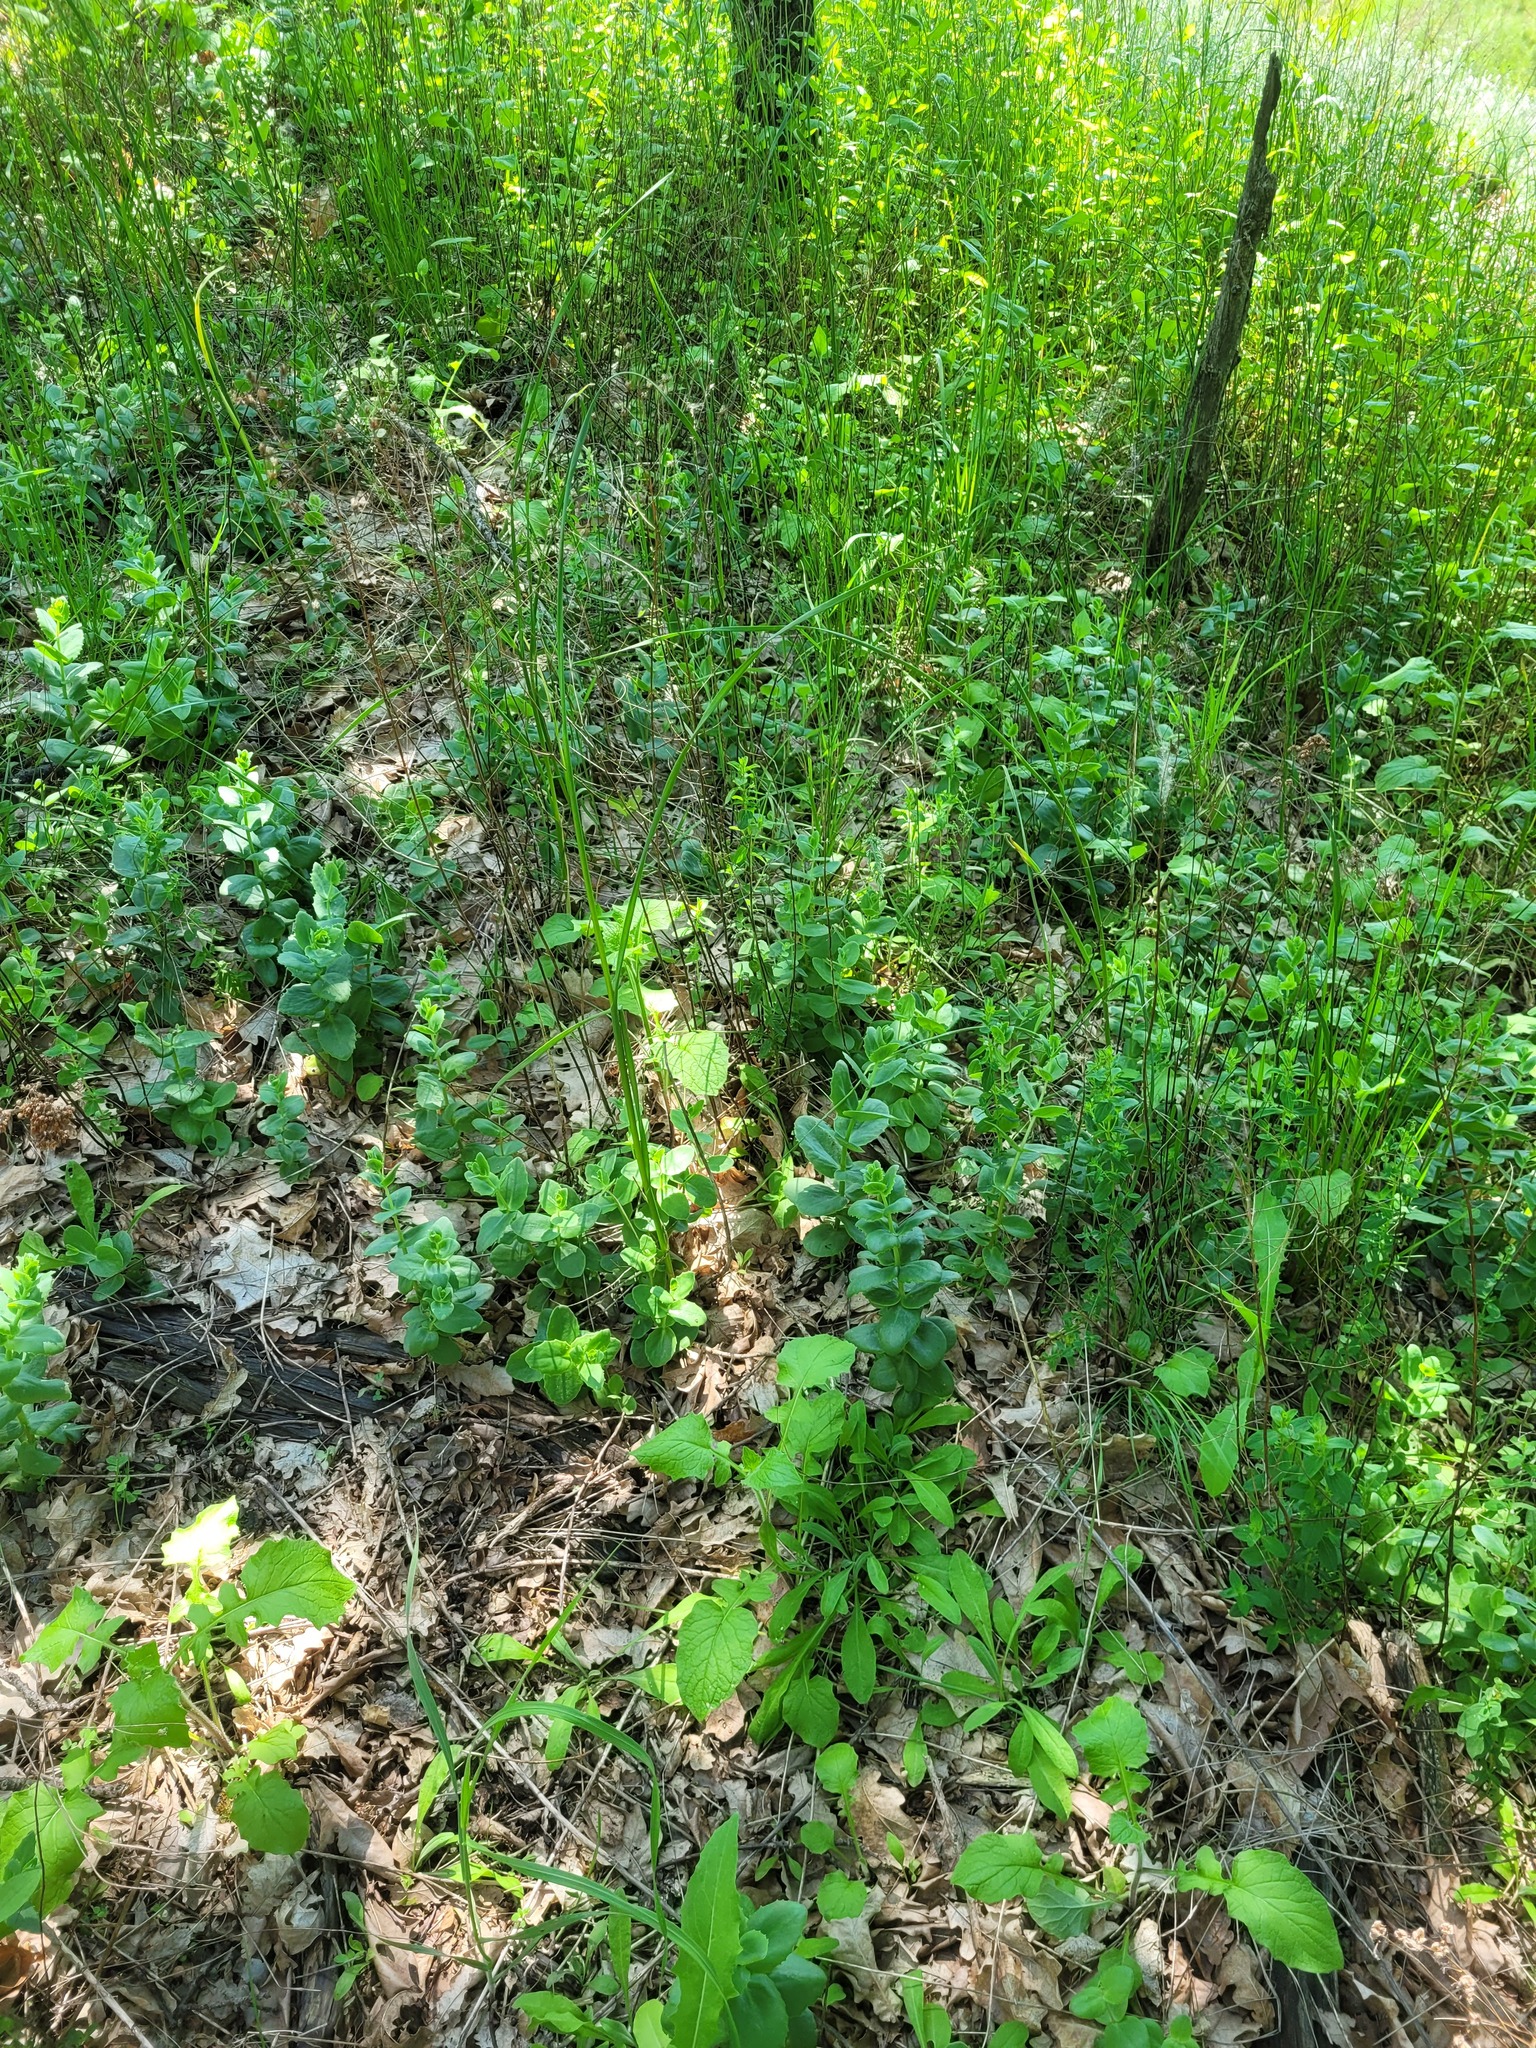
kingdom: Plantae
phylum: Tracheophyta
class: Magnoliopsida
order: Saxifragales
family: Crassulaceae
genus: Hylotelephium
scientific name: Hylotelephium maximum
